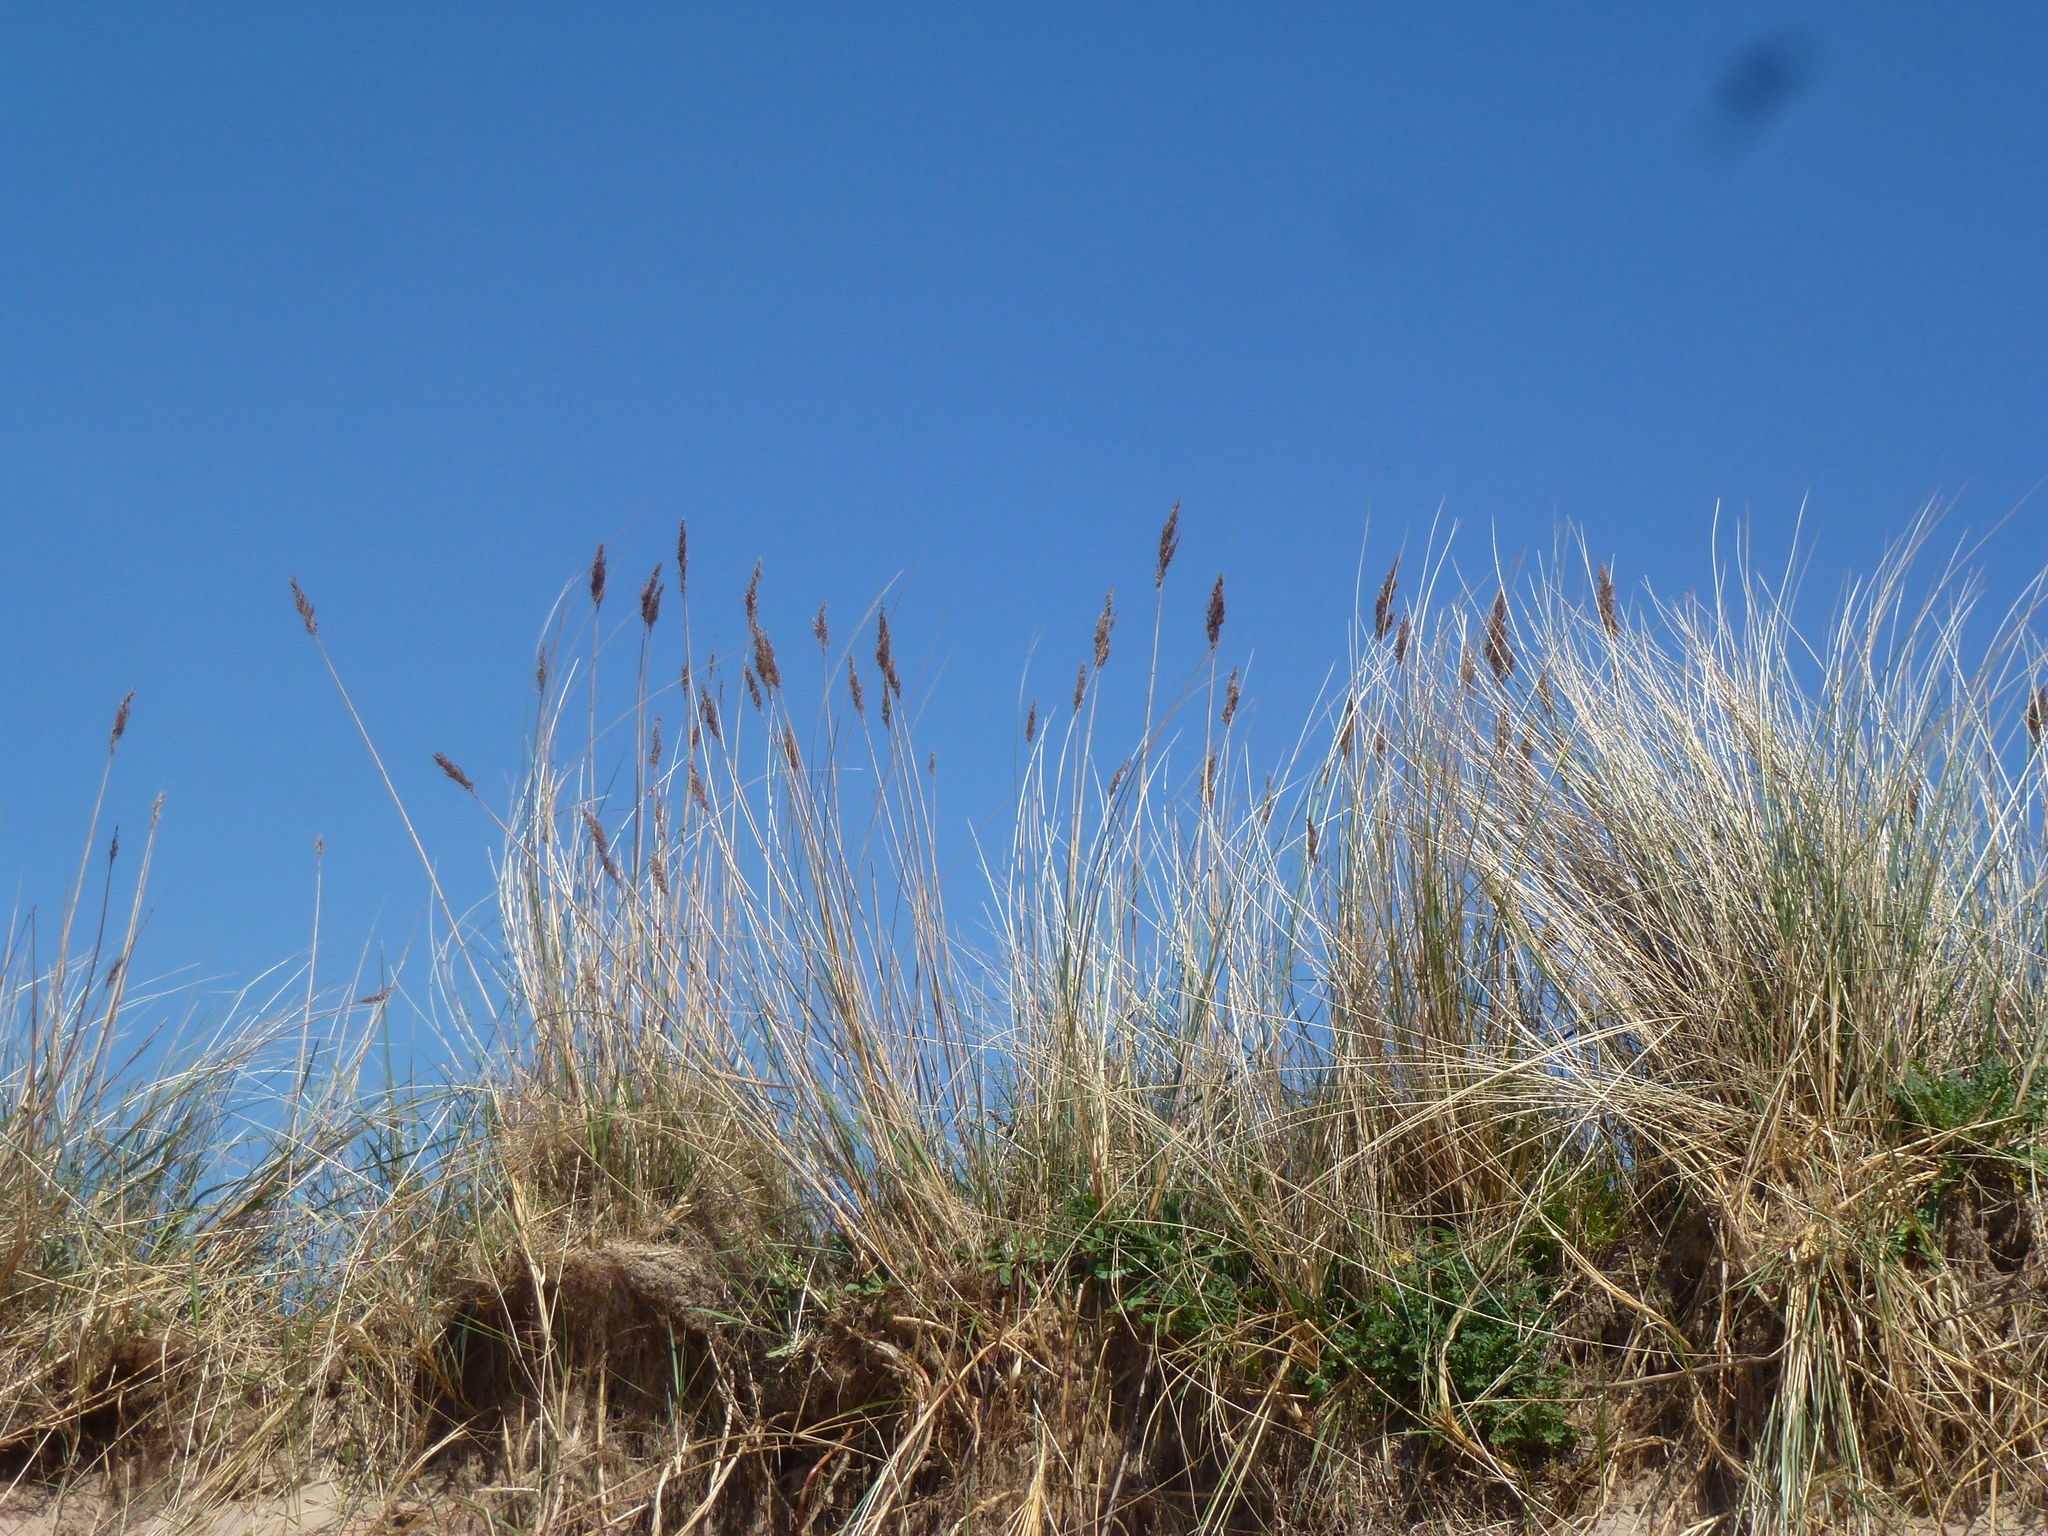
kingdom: Plantae
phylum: Tracheophyta
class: Liliopsida
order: Poales
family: Poaceae
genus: Phragmites
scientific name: Phragmites australis
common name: Common reed
